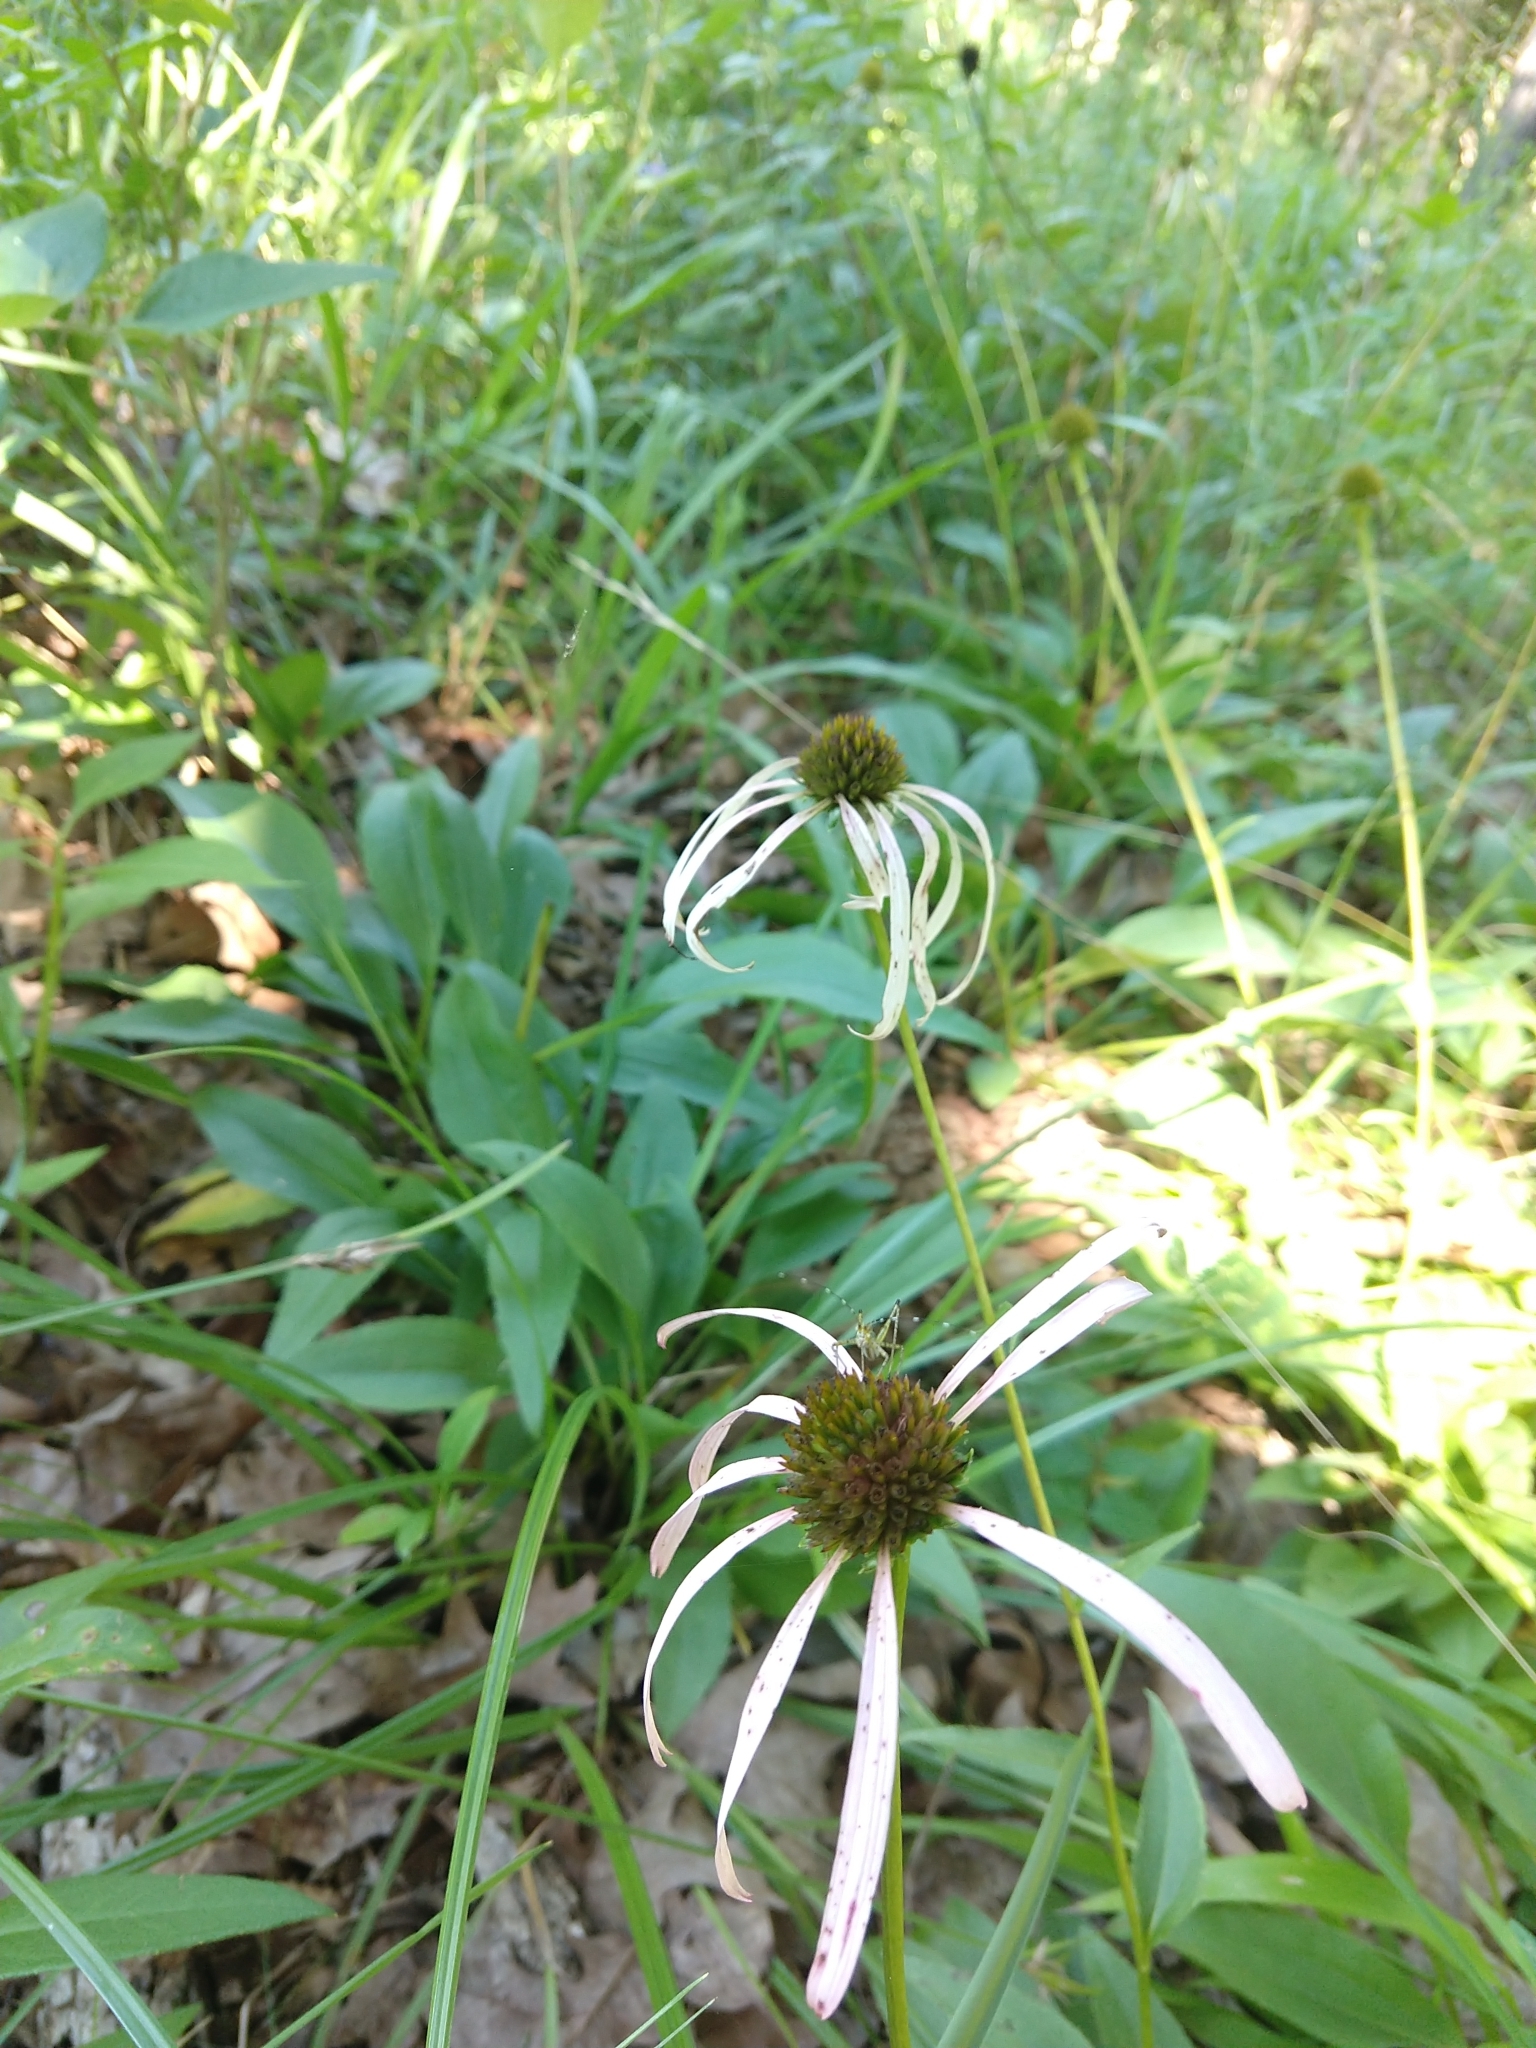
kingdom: Plantae
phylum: Tracheophyta
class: Magnoliopsida
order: Asterales
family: Asteraceae
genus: Echinacea
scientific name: Echinacea laevigata
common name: Smooth coneflower
